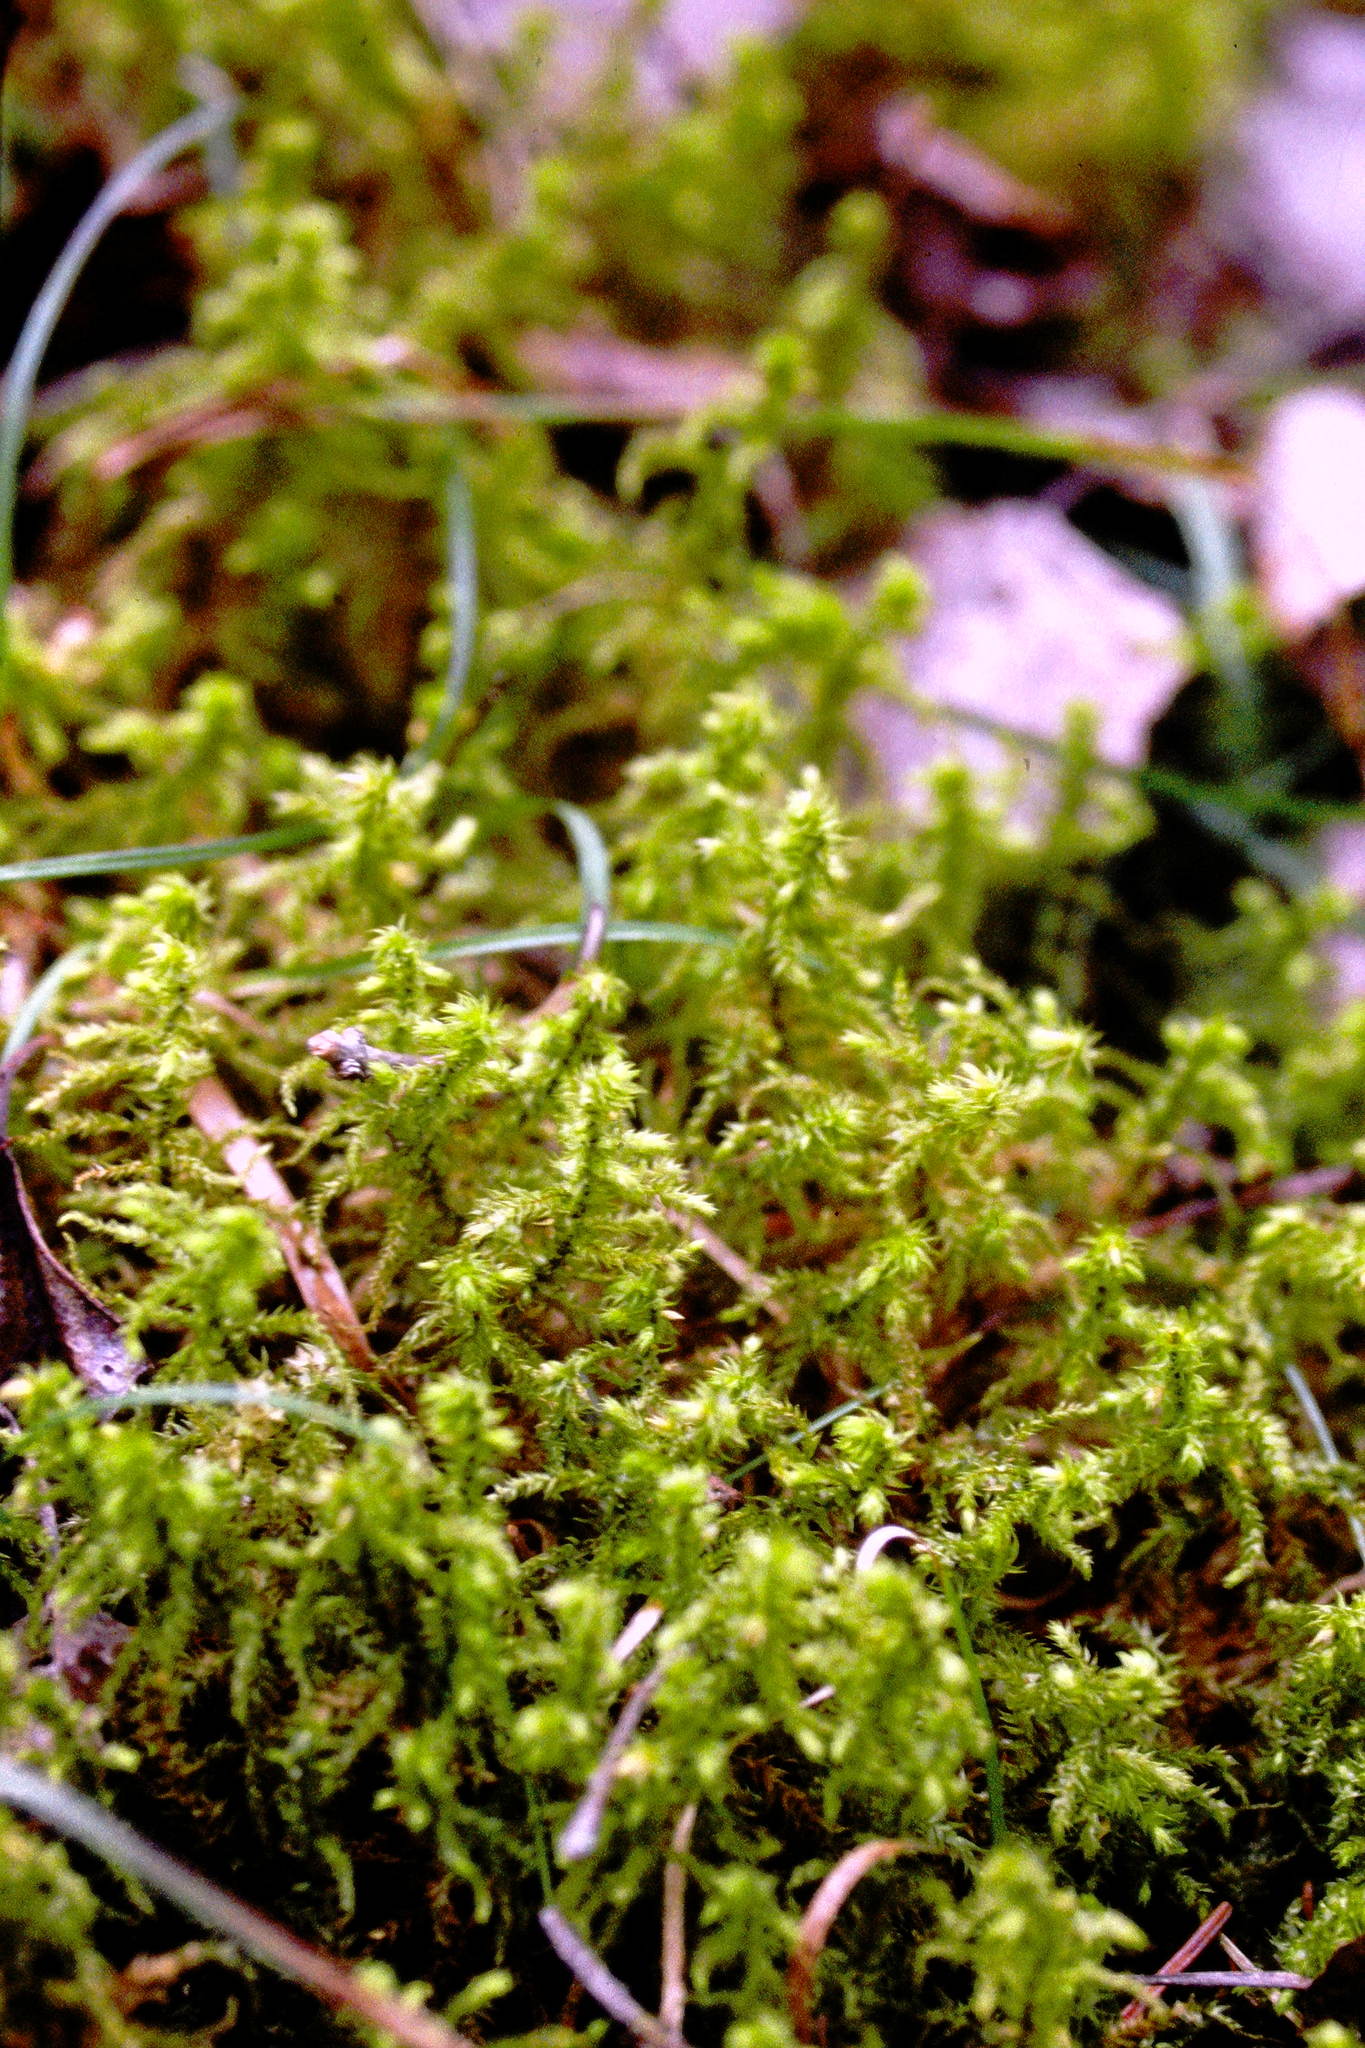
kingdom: Plantae
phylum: Bryophyta
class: Bryopsida
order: Hypnales
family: Hylocomiaceae
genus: Hylocomiadelphus
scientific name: Hylocomiadelphus triquetrus
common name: Rough goose neck moss
